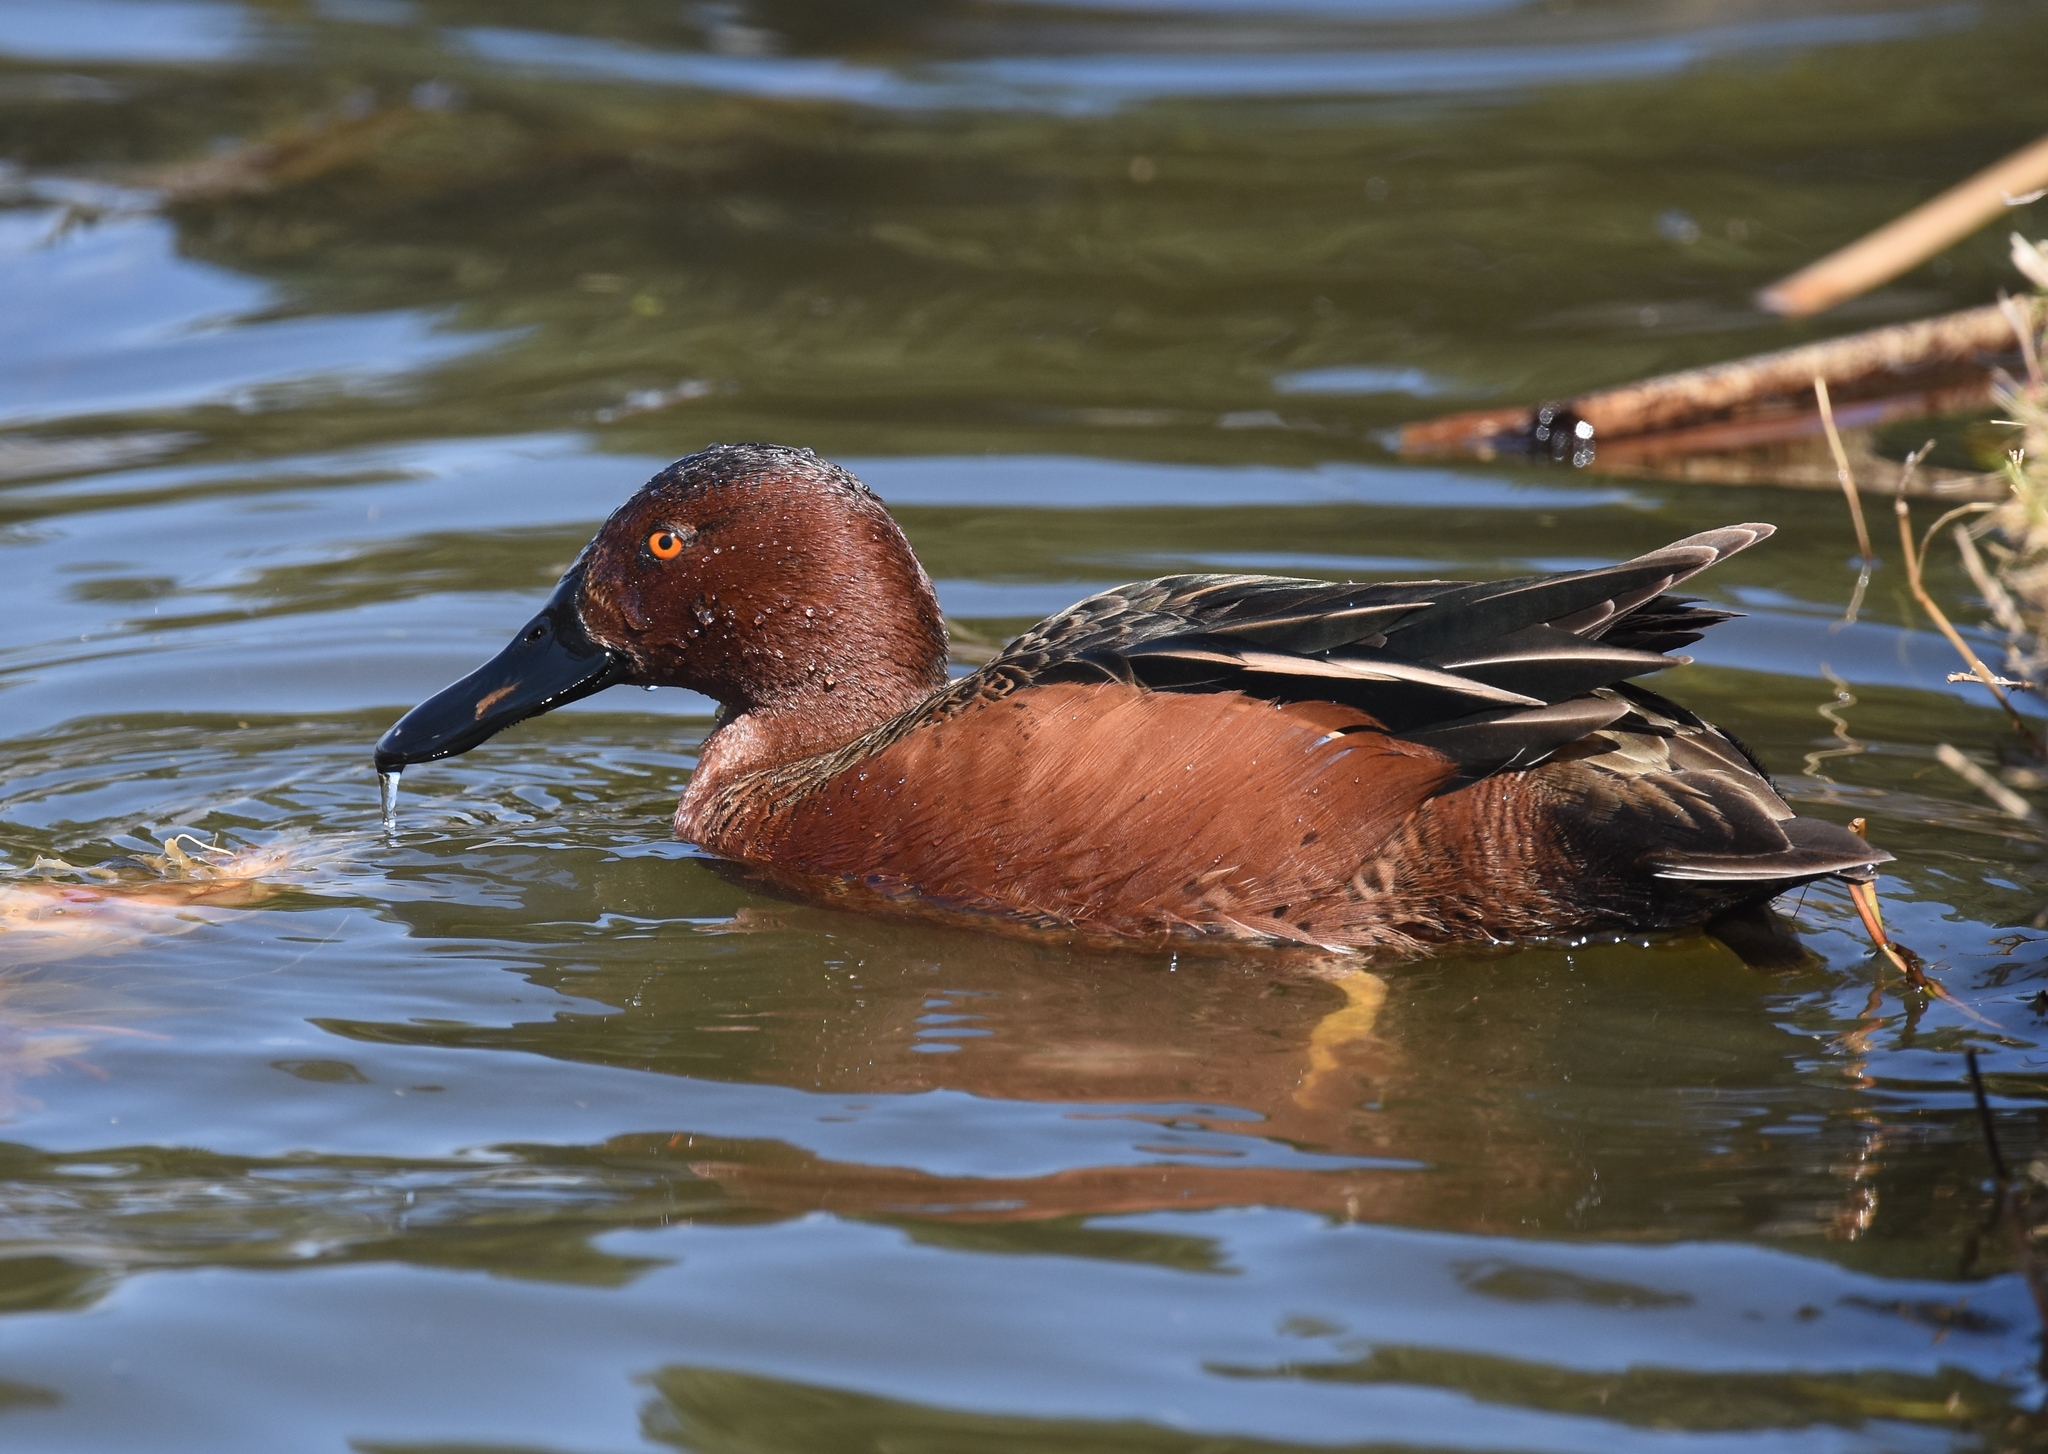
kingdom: Animalia
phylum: Chordata
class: Aves
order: Anseriformes
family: Anatidae
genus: Spatula
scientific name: Spatula cyanoptera
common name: Cinnamon teal
